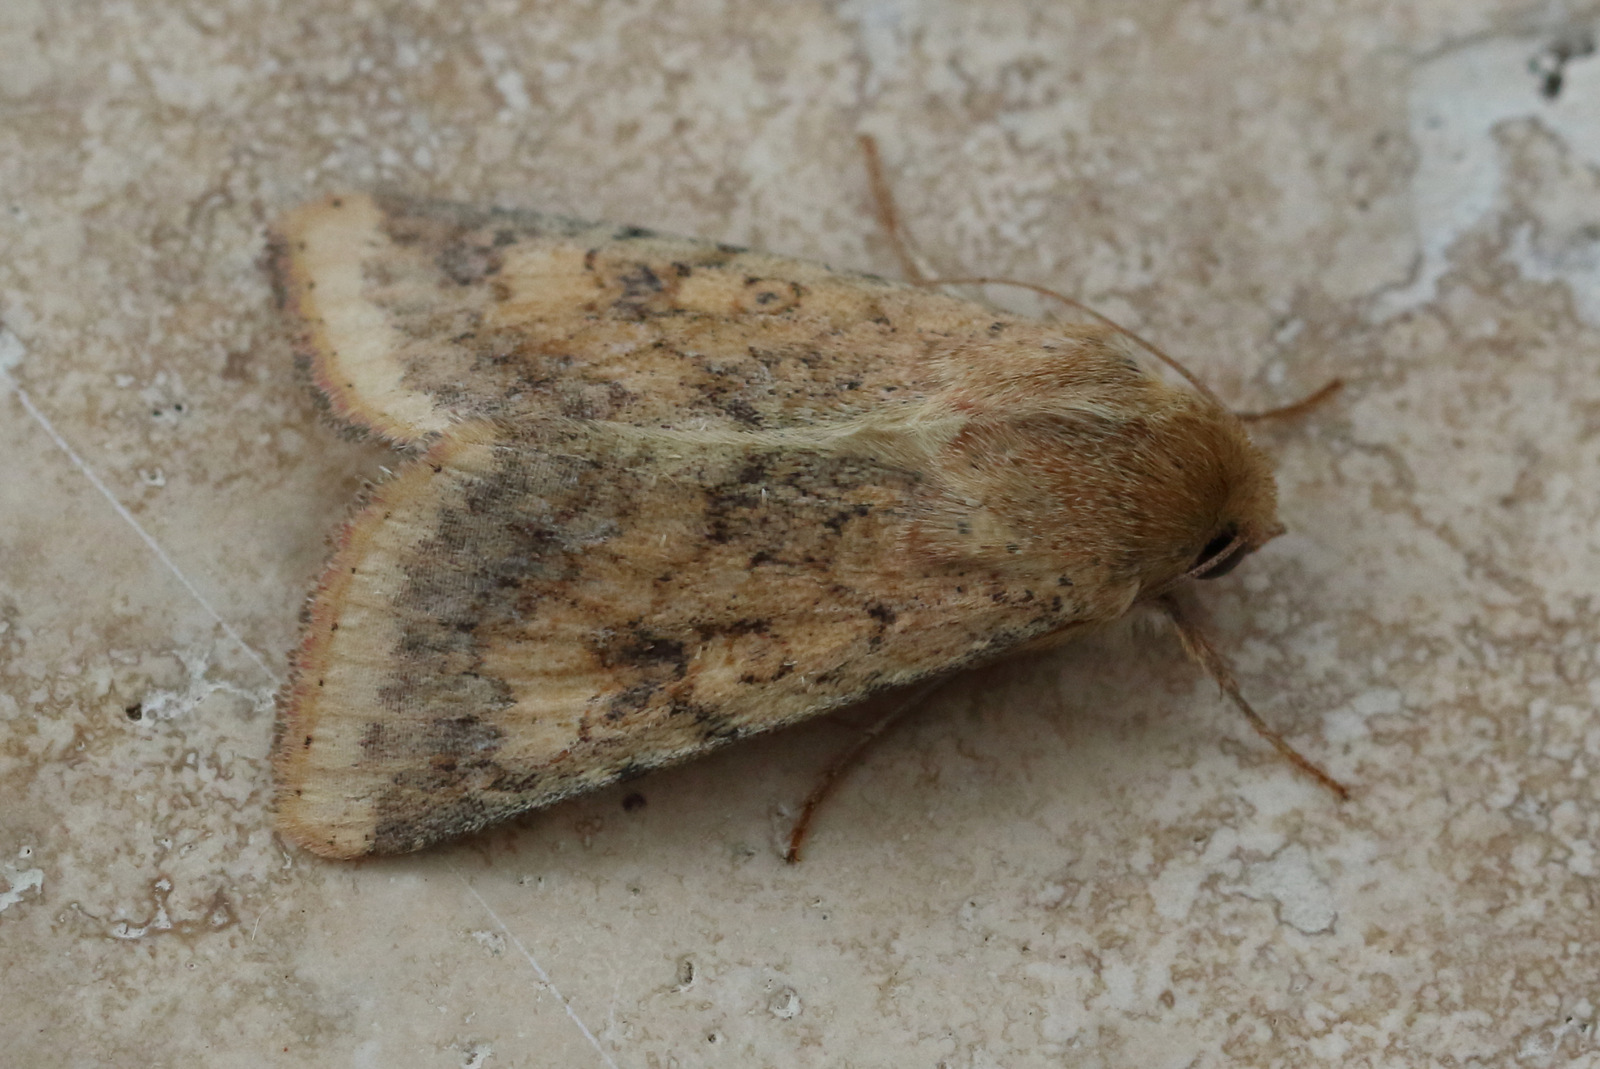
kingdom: Animalia
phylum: Arthropoda
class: Insecta
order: Lepidoptera
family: Noctuidae
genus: Helicoverpa
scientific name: Helicoverpa armigera
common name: Cotton bollworm
